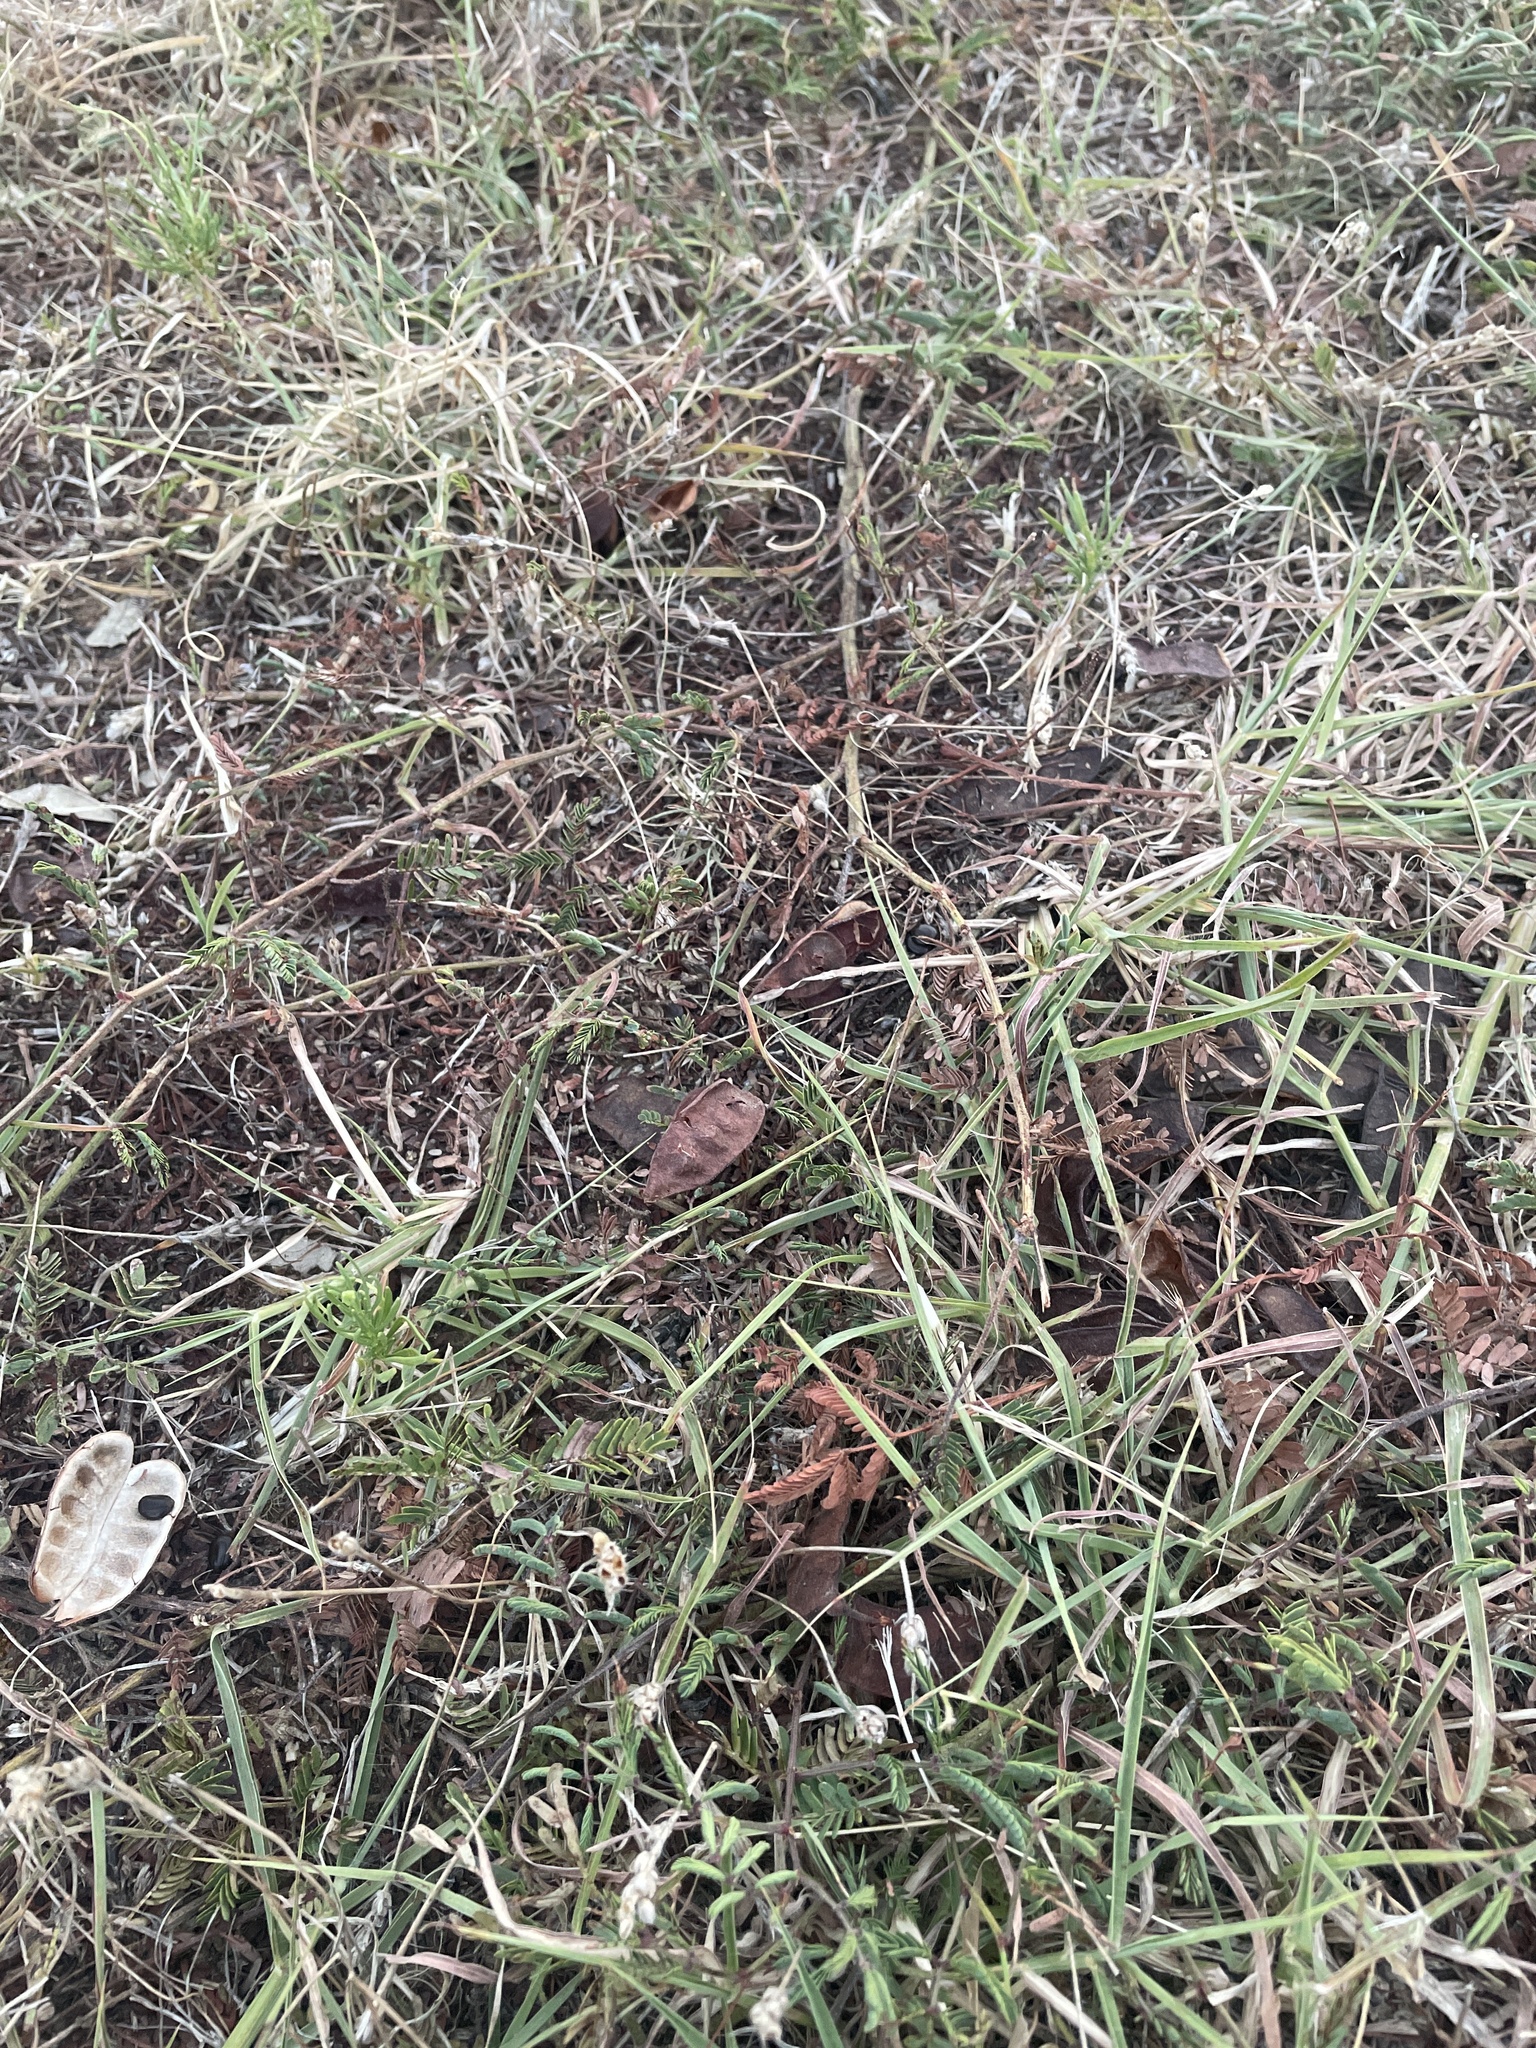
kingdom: Plantae
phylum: Tracheophyta
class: Magnoliopsida
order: Fabales
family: Fabaceae
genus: Neptunia
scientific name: Neptunia lutea
